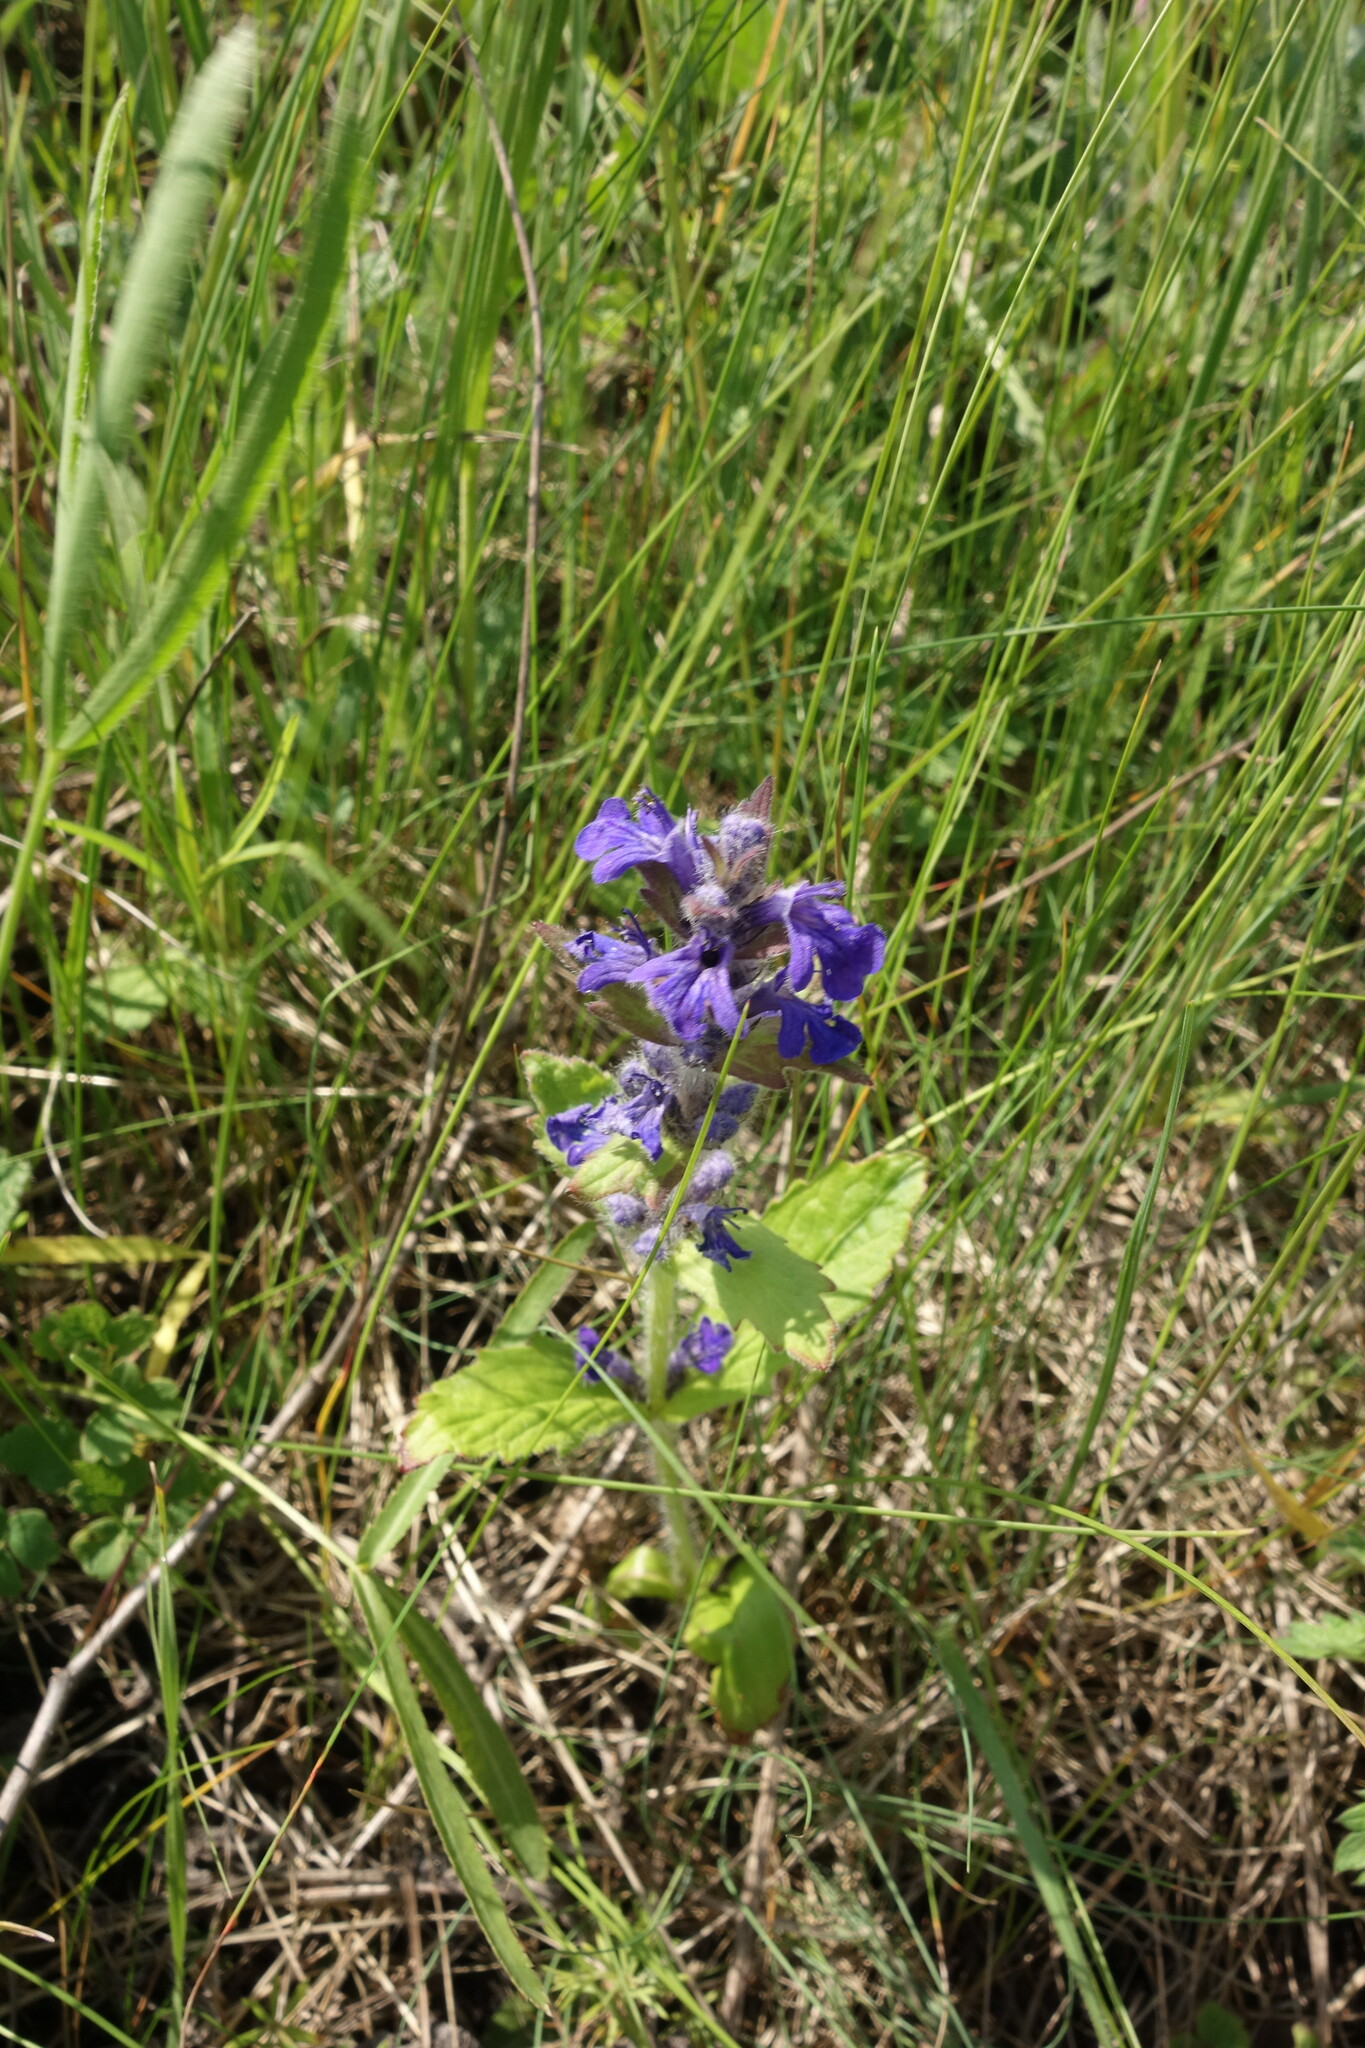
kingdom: Plantae
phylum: Tracheophyta
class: Magnoliopsida
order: Lamiales
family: Lamiaceae
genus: Ajuga
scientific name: Ajuga genevensis
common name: Blue bugle
